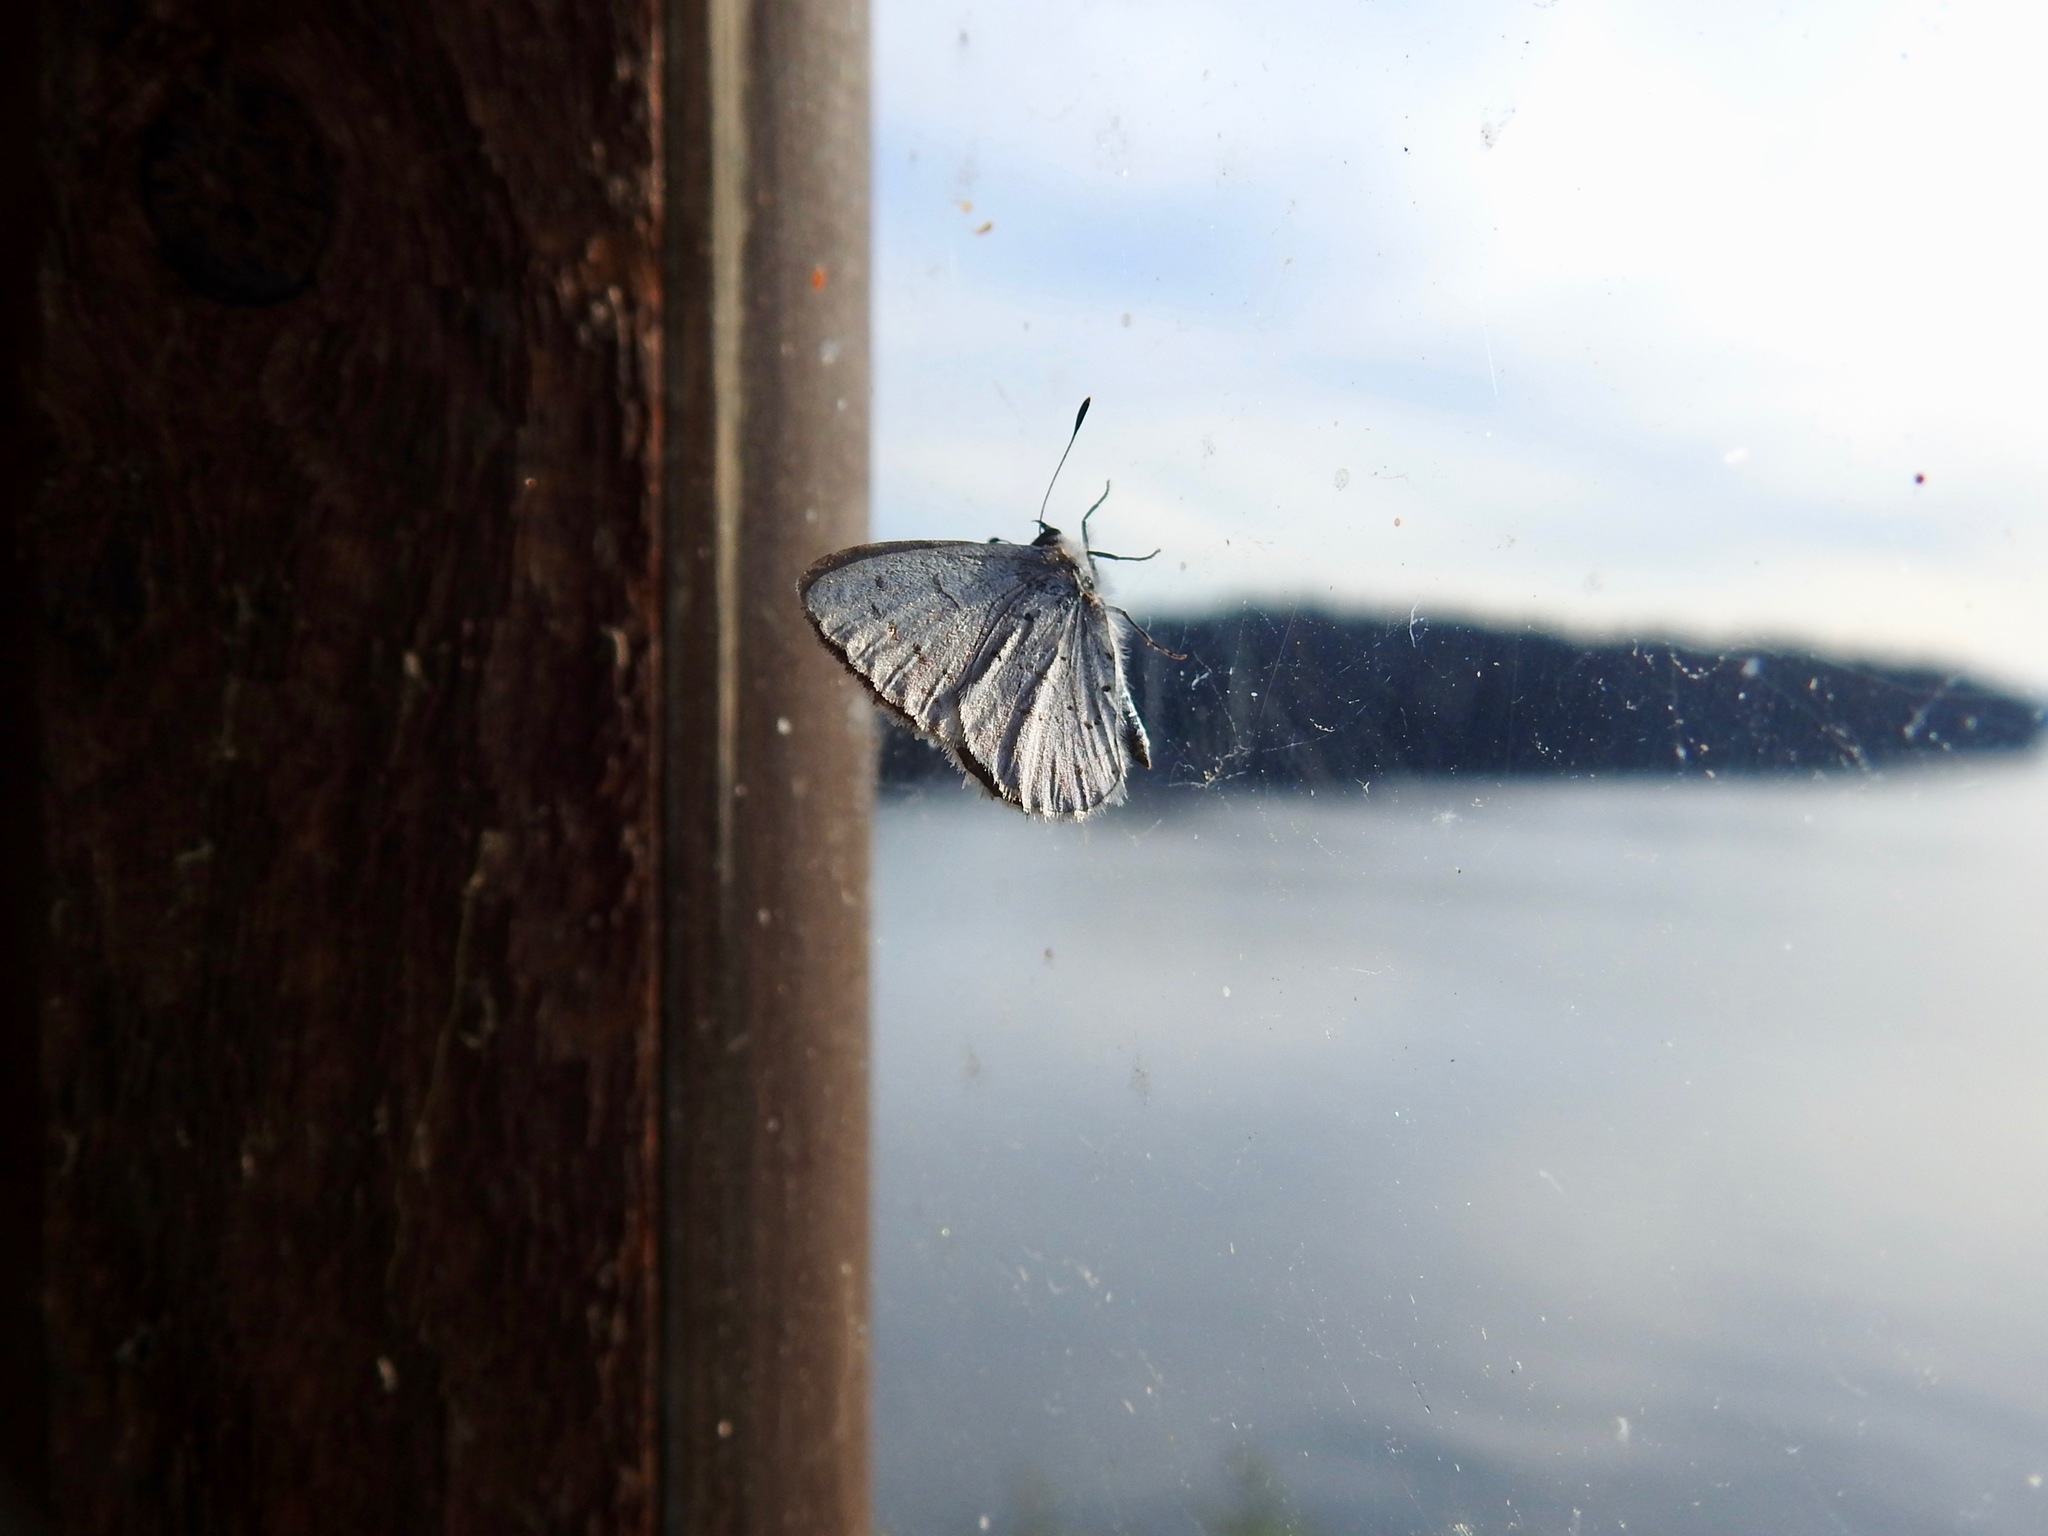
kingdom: Animalia
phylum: Arthropoda
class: Insecta
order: Lepidoptera
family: Lycaenidae
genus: Celastrina
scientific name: Celastrina ladon
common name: Spring azure
